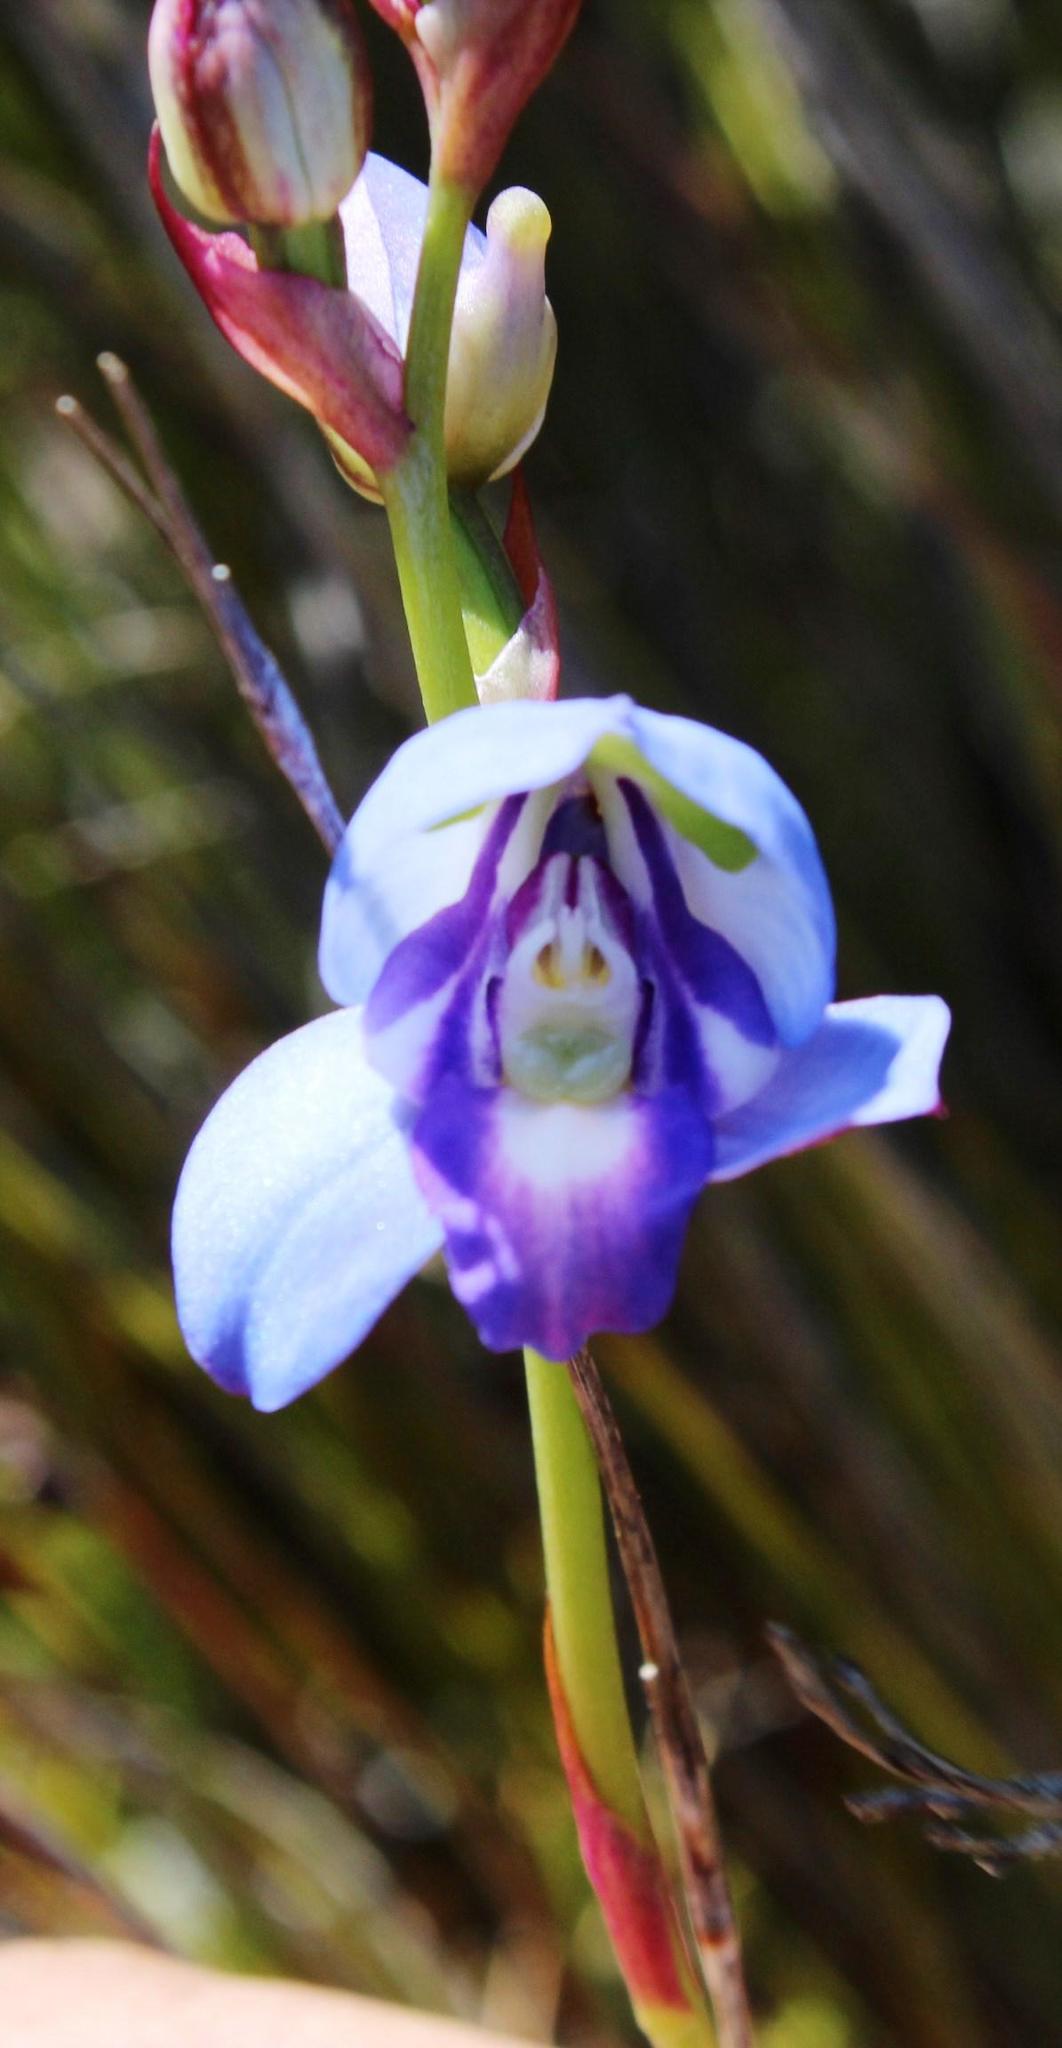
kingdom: Plantae
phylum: Tracheophyta
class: Liliopsida
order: Asparagales
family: Orchidaceae
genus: Disa
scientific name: Disa graminifolia
